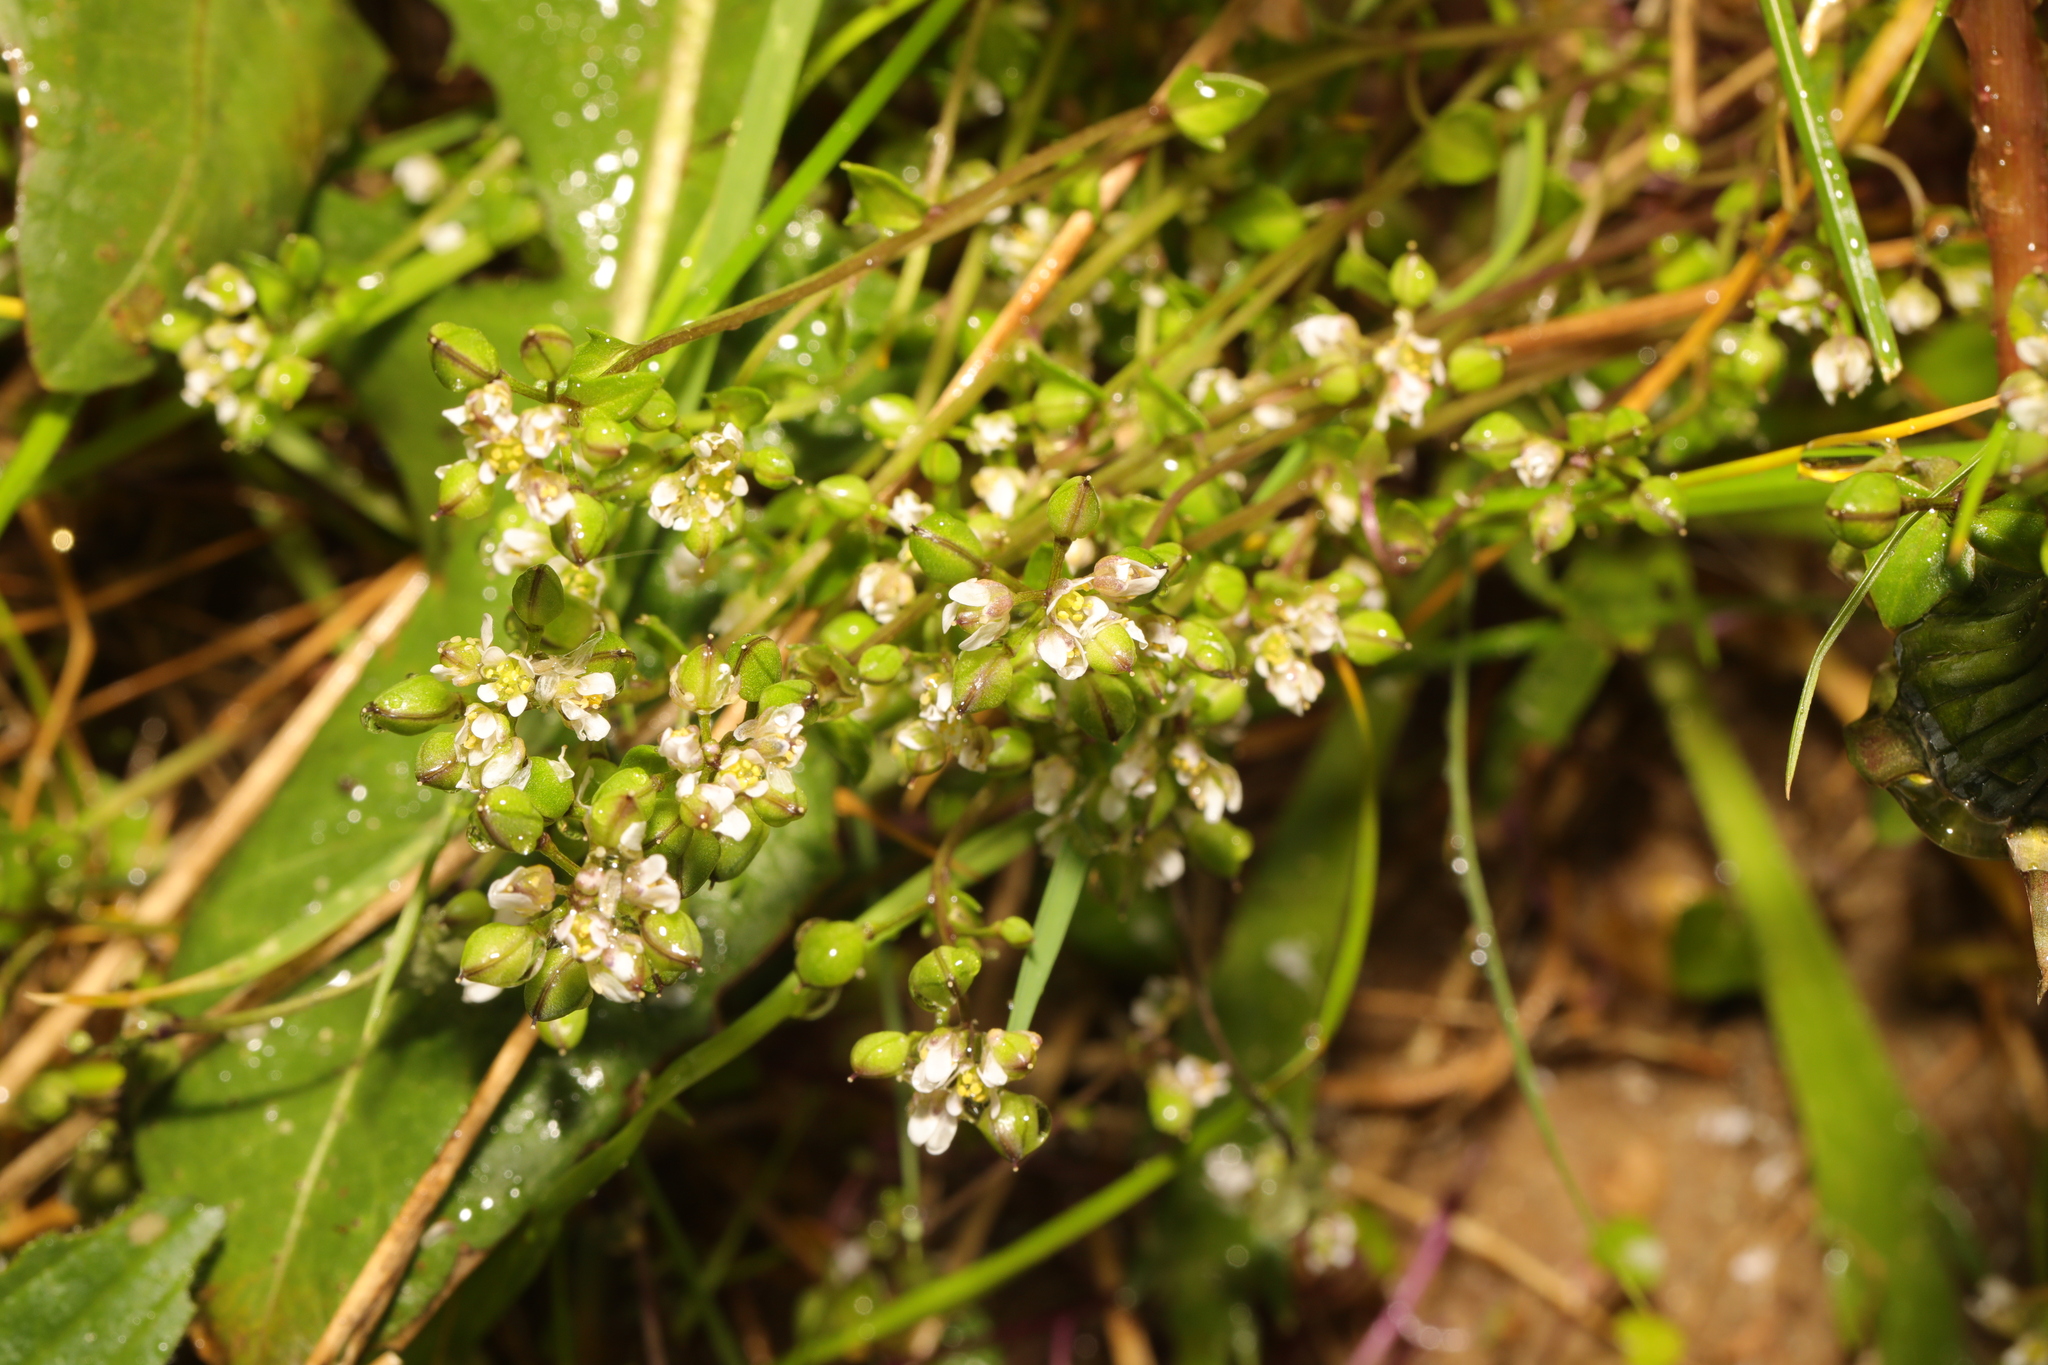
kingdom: Plantae
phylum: Tracheophyta
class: Magnoliopsida
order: Brassicales
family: Brassicaceae
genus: Cochlearia
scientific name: Cochlearia danica
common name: Early scurvygrass
